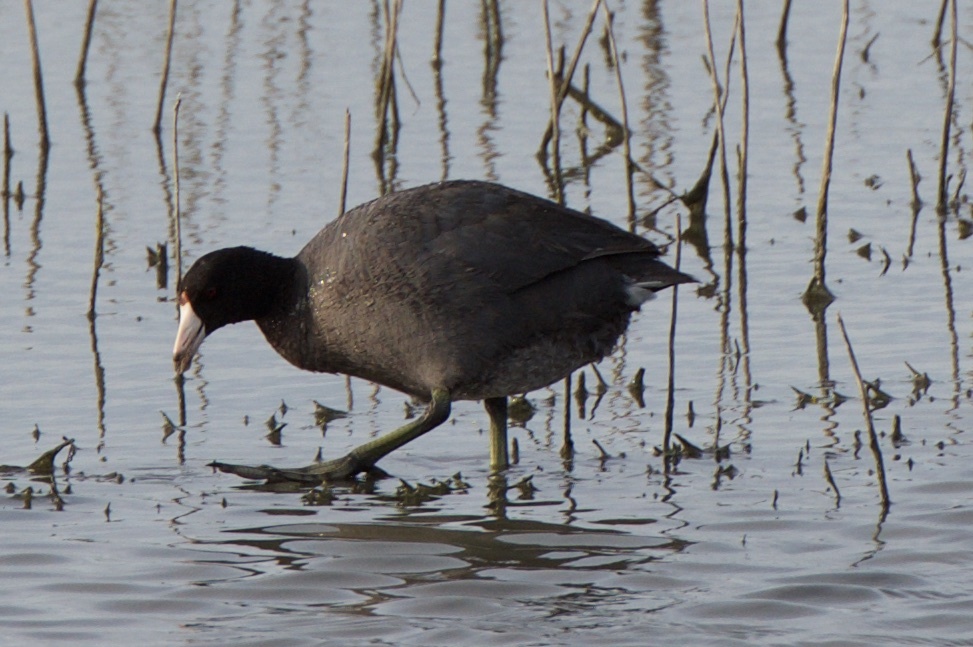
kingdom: Animalia
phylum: Chordata
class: Aves
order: Gruiformes
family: Rallidae
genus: Fulica
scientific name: Fulica americana
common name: American coot
